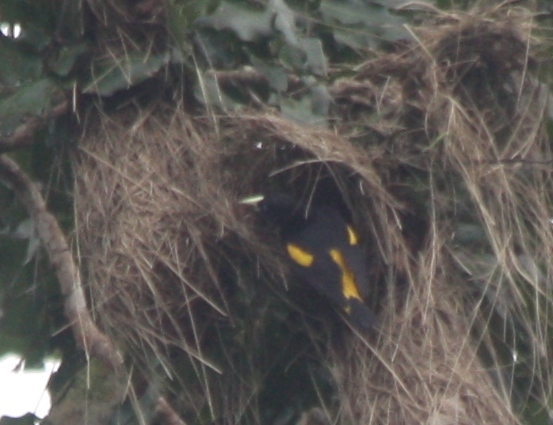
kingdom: Animalia
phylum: Chordata
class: Aves
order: Passeriformes
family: Icteridae
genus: Cacicus
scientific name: Cacicus cela
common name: Yellow-rumped cacique
